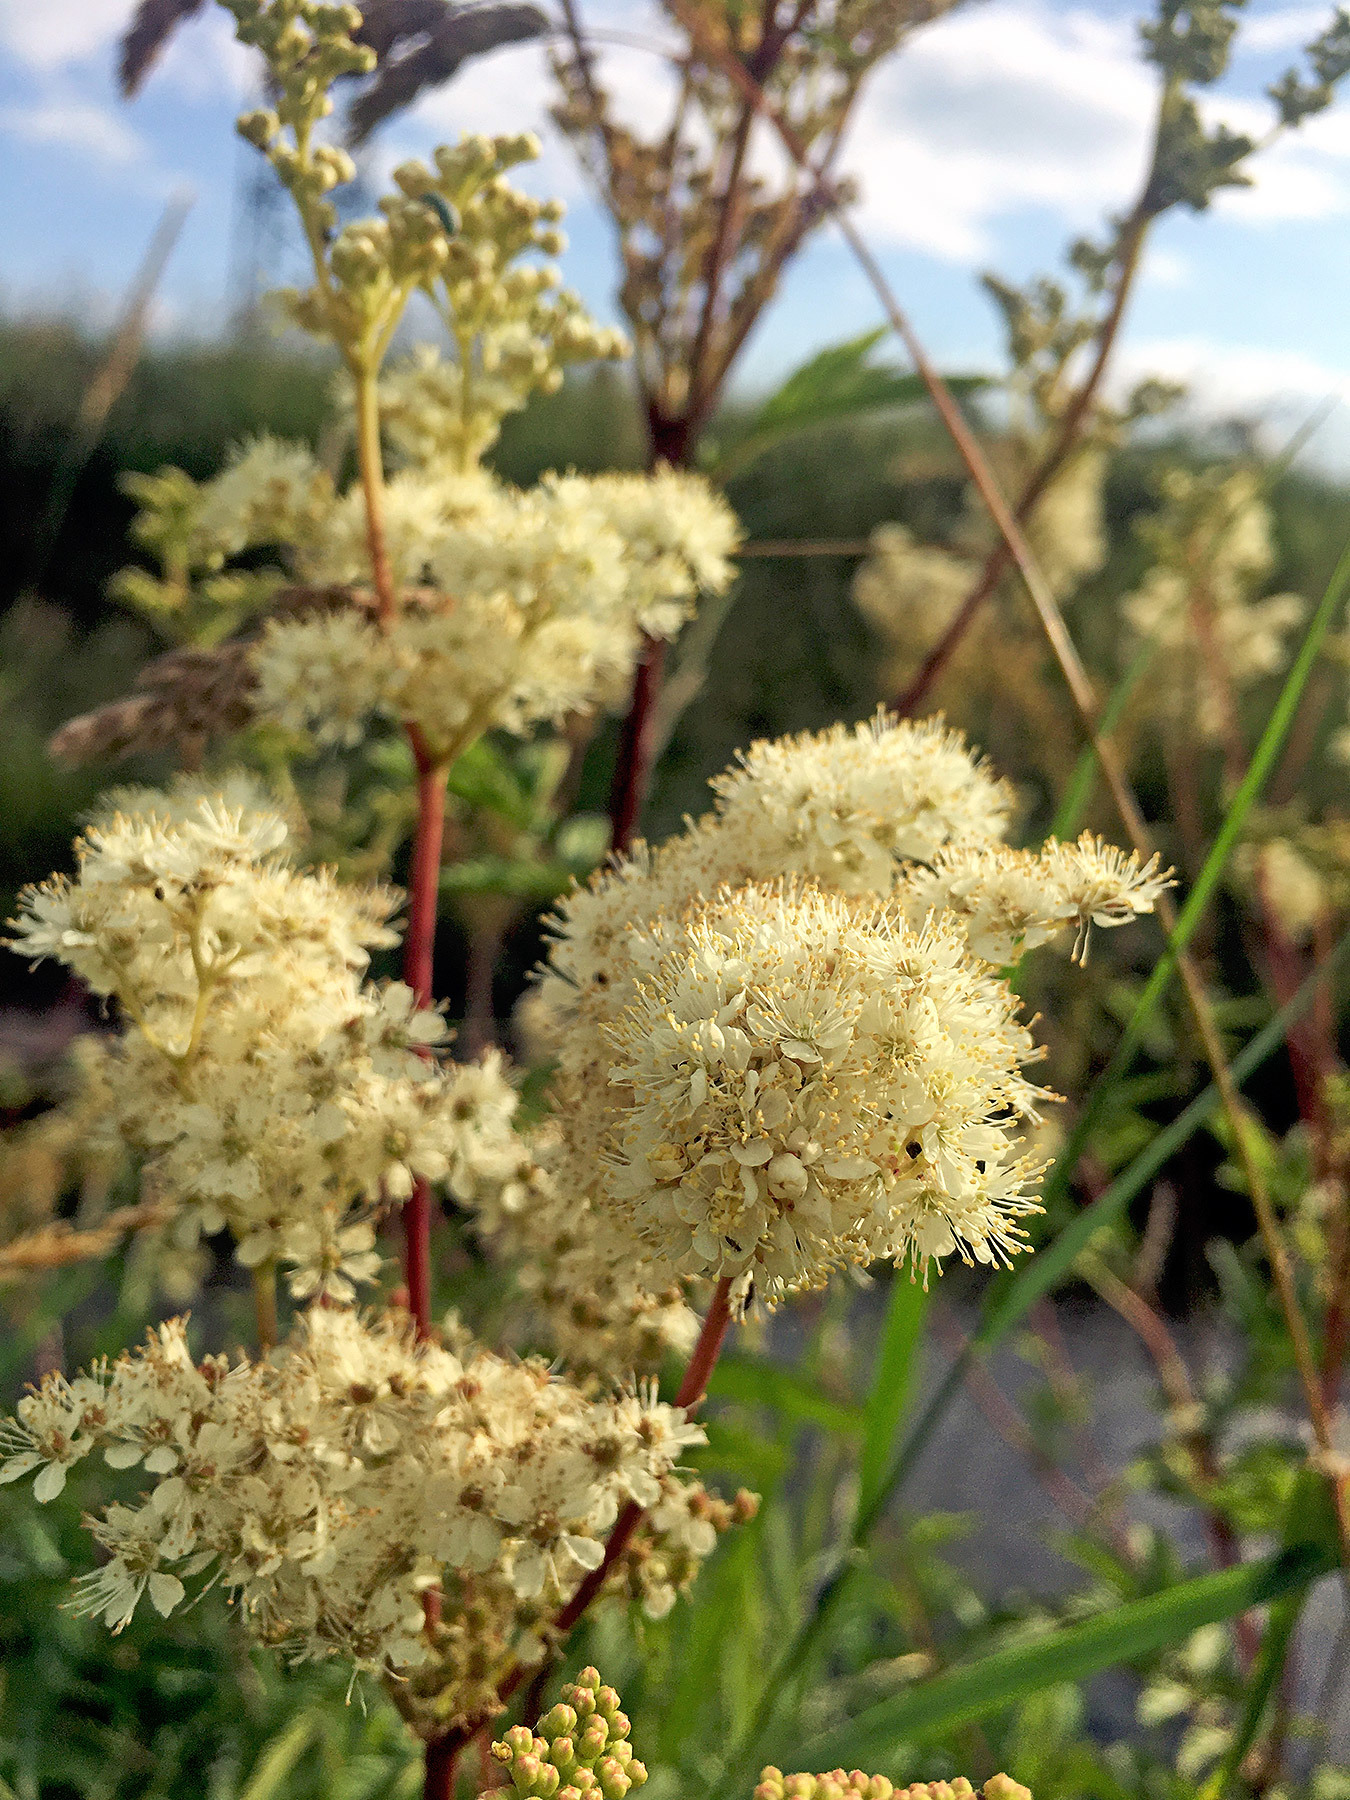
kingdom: Plantae
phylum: Tracheophyta
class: Magnoliopsida
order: Rosales
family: Rosaceae
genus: Filipendula
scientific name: Filipendula ulmaria
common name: Meadowsweet
